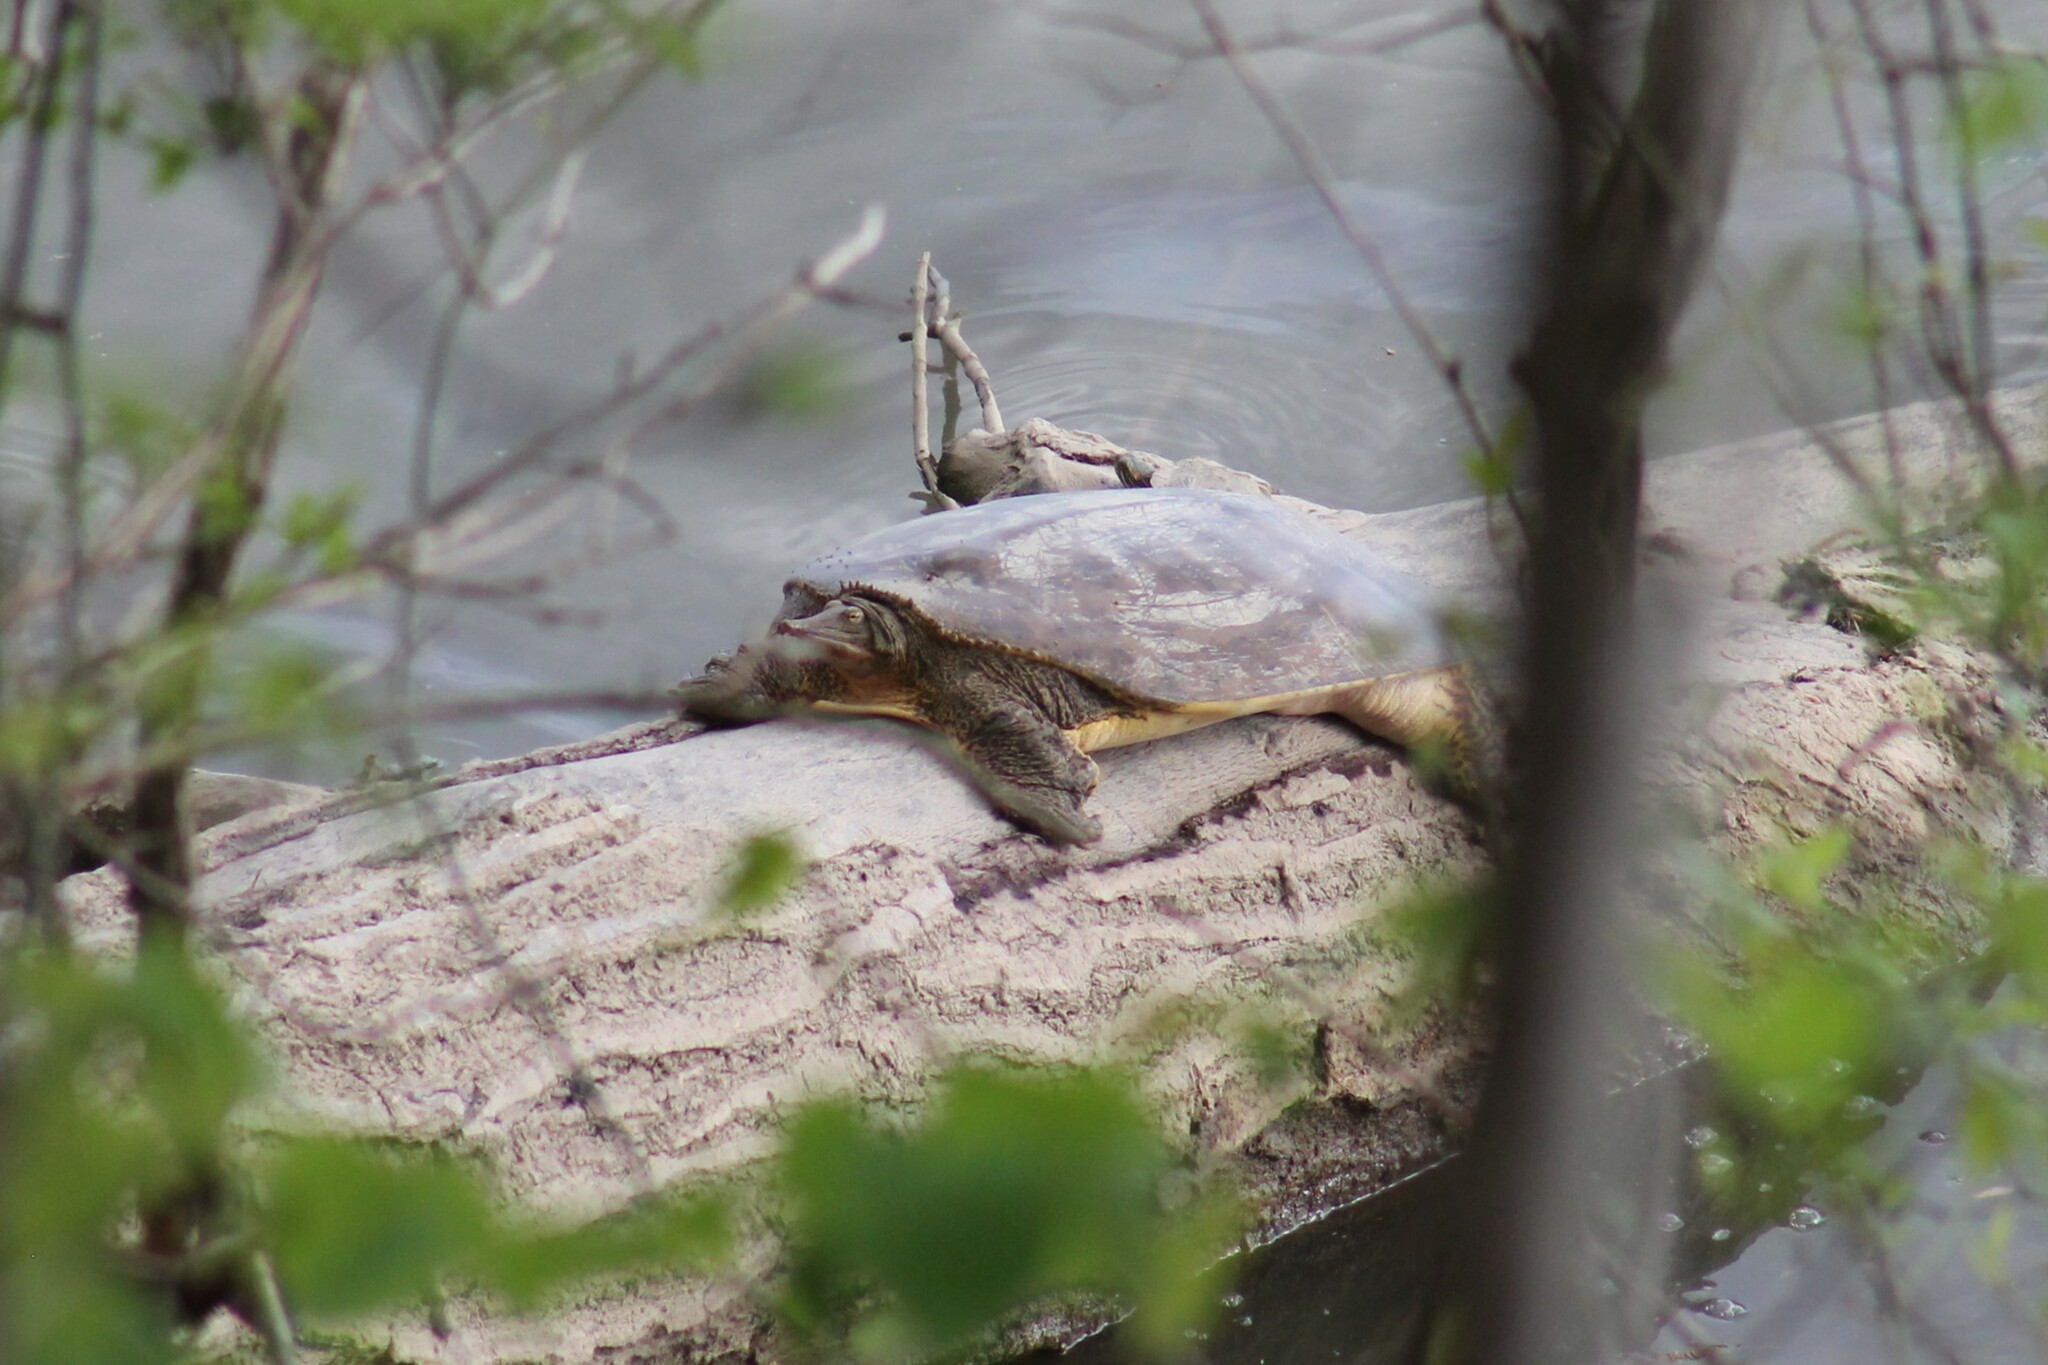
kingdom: Animalia
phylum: Chordata
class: Testudines
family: Trionychidae
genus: Apalone
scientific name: Apalone spinifera
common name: Spiny softshell turtle
